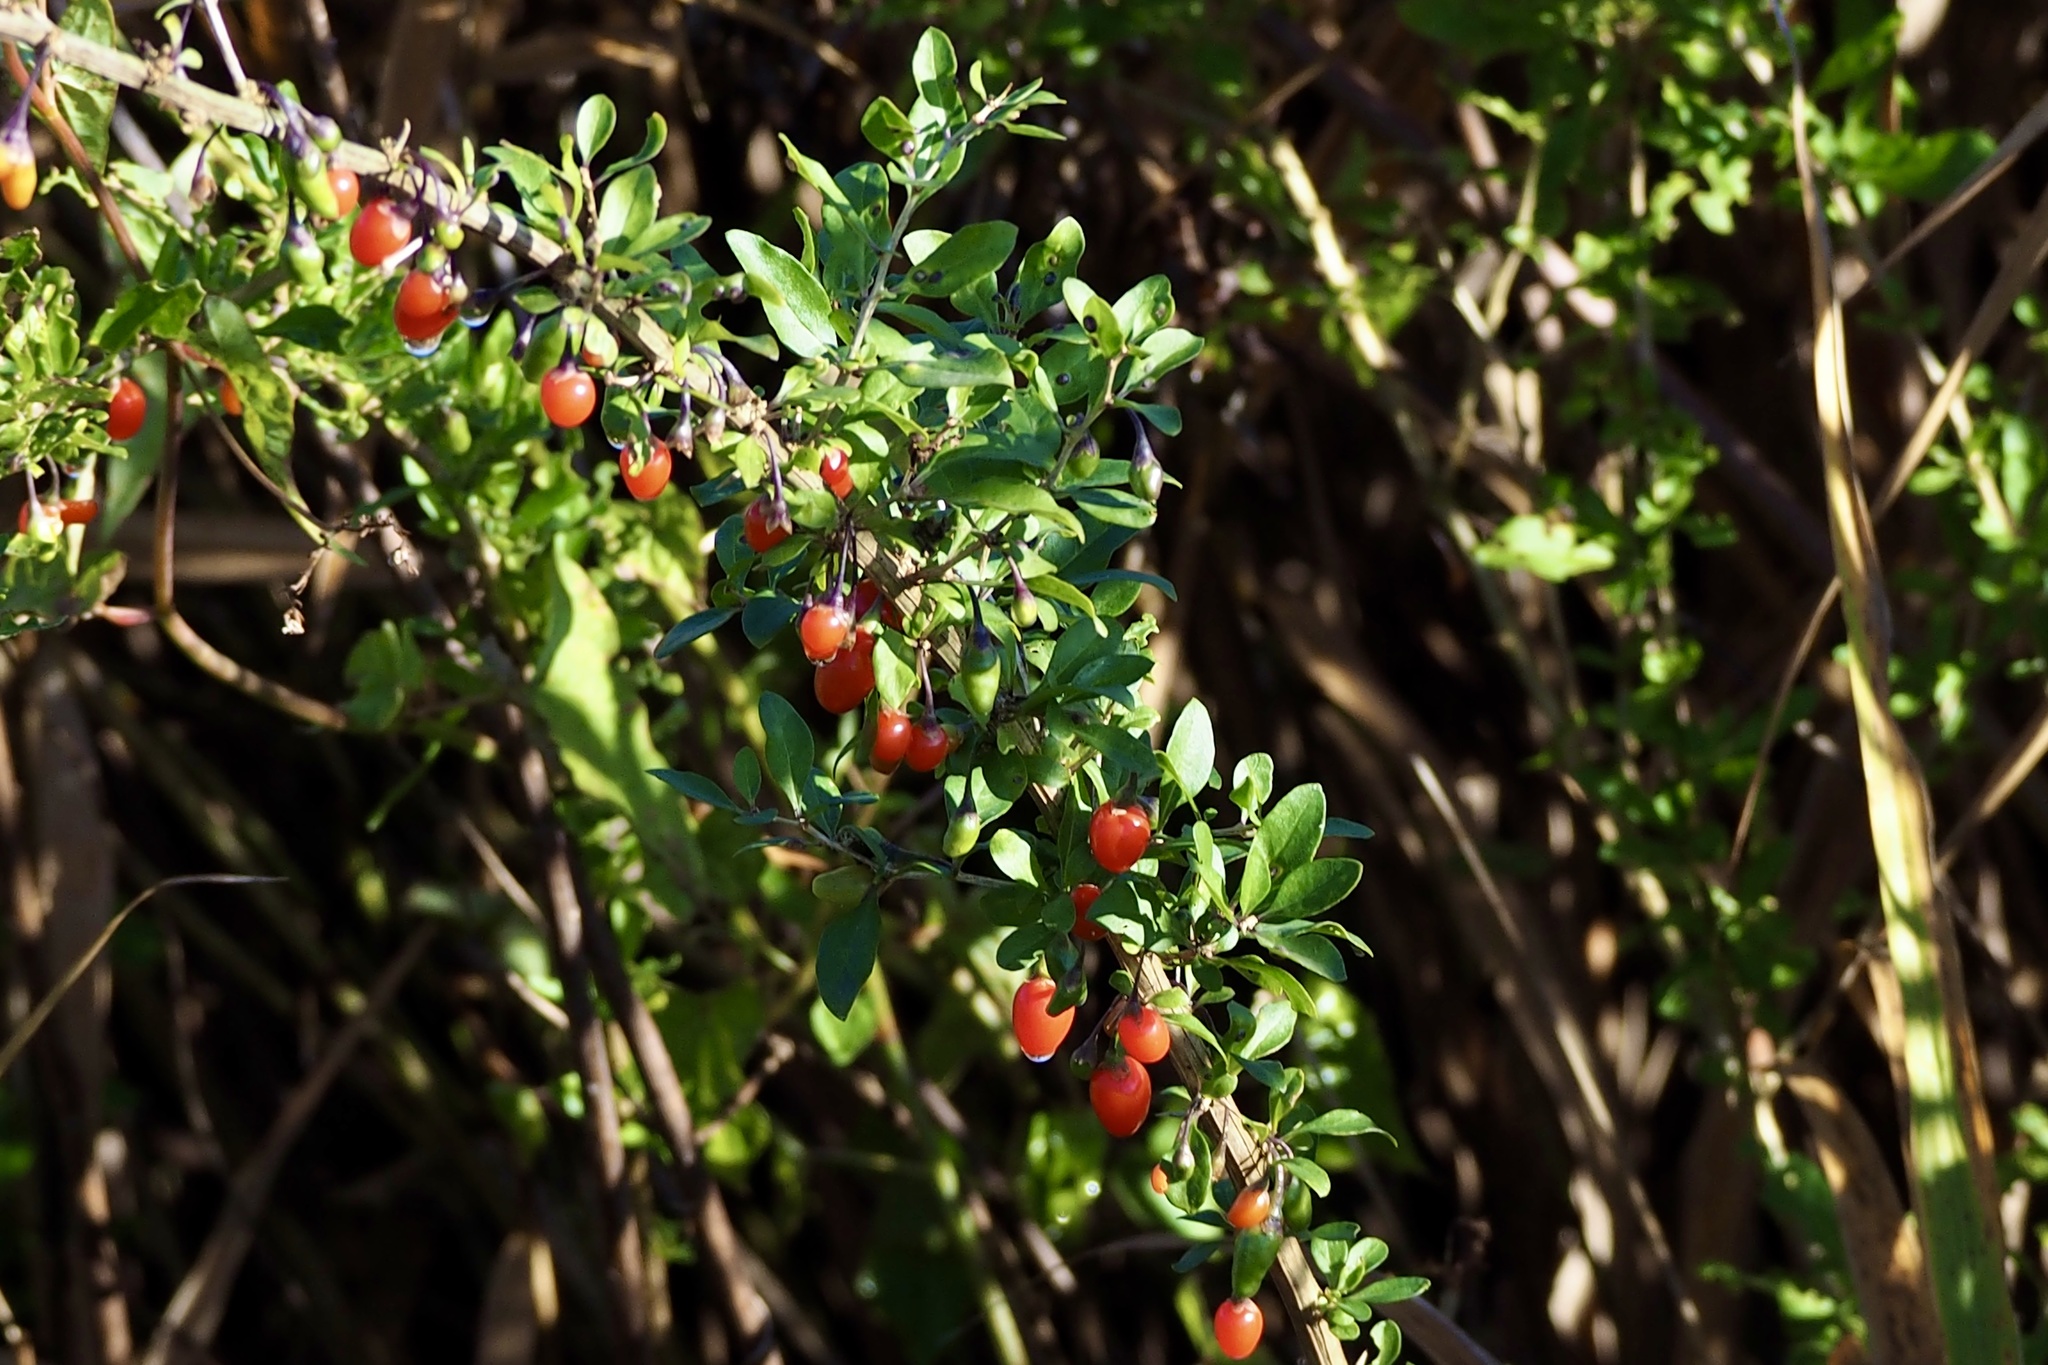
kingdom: Plantae
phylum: Tracheophyta
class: Magnoliopsida
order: Solanales
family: Solanaceae
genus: Lycium
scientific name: Lycium chinense
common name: Chinese teaplant
